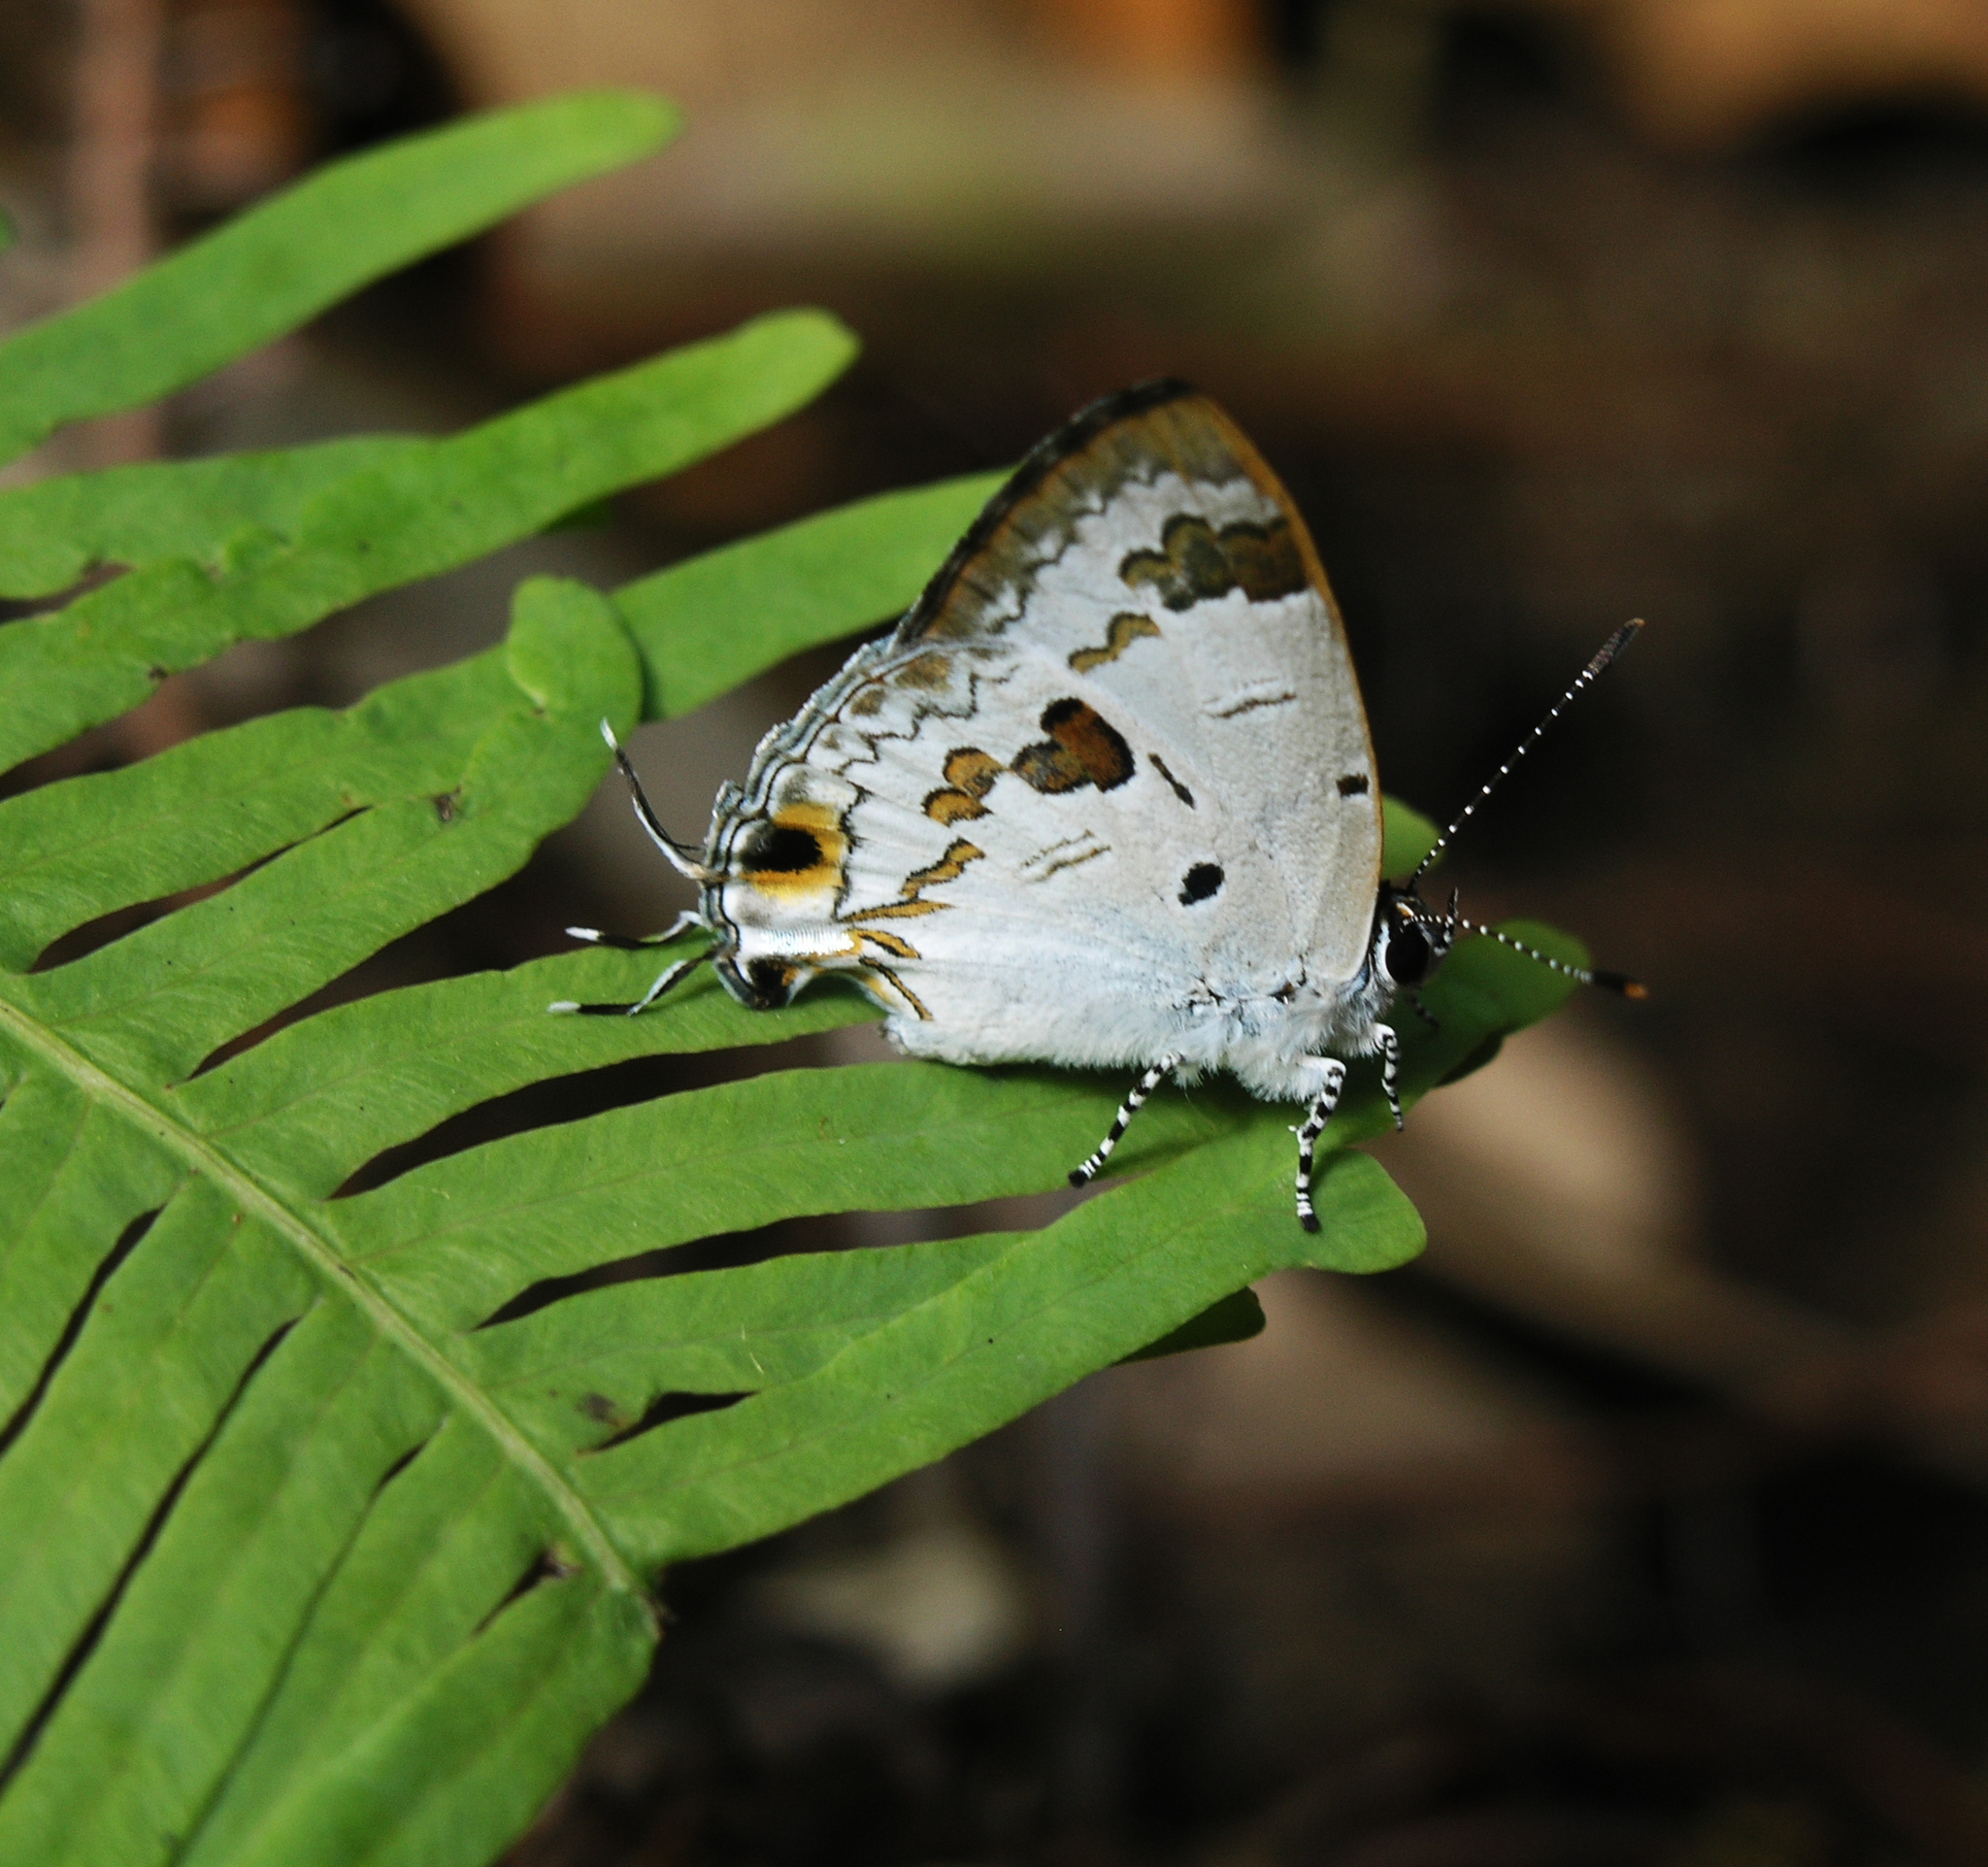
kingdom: Animalia
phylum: Arthropoda
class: Insecta
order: Lepidoptera
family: Lycaenidae
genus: Chliaria
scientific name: Chliaria othona
